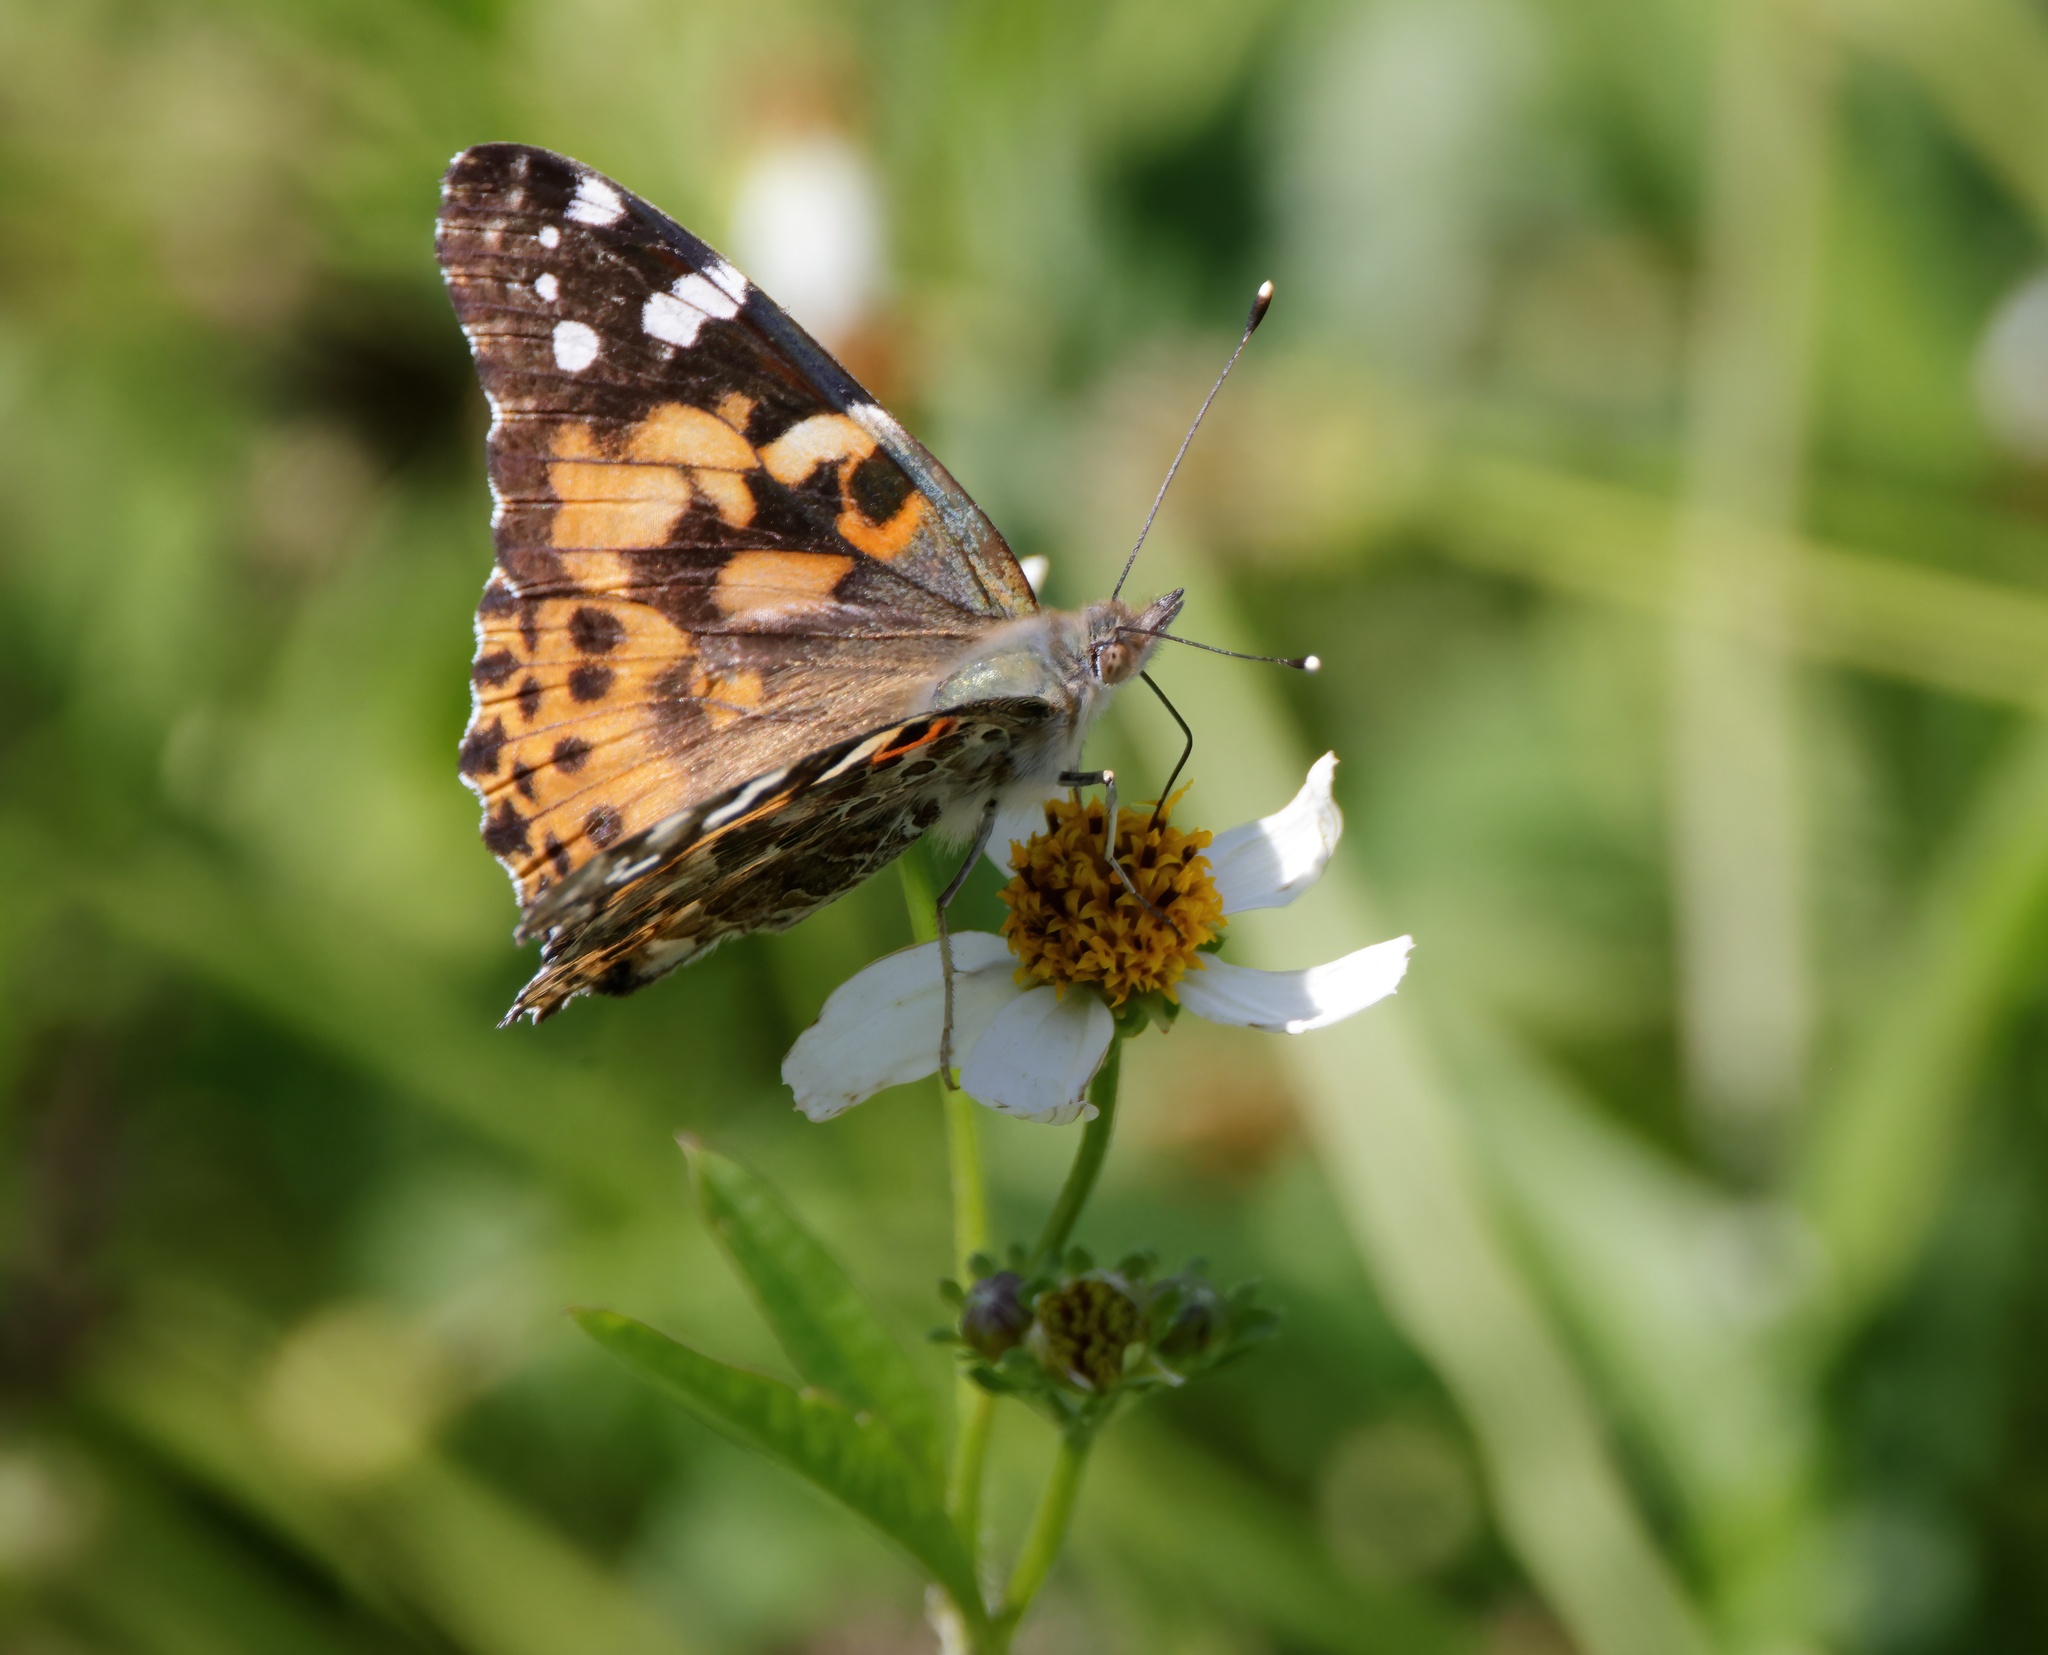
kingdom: Animalia
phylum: Arthropoda
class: Insecta
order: Lepidoptera
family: Nymphalidae
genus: Vanessa
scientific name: Vanessa cardui
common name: Painted lady
